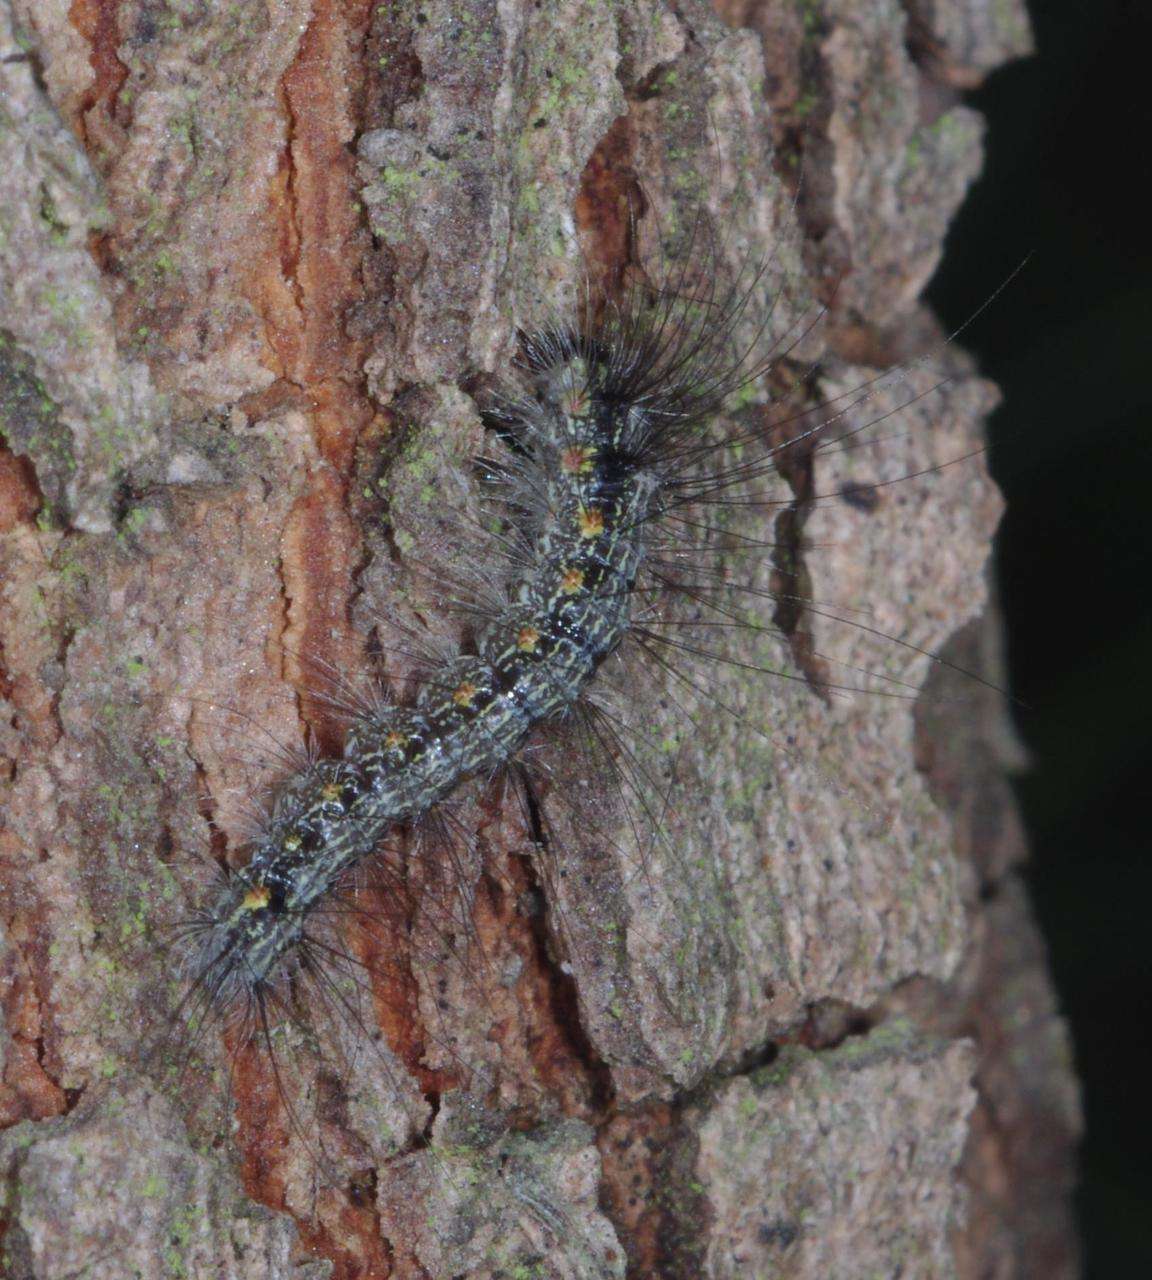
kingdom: Animalia
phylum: Arthropoda
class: Insecta
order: Lepidoptera
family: Erebidae
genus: Anestia
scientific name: Anestia
